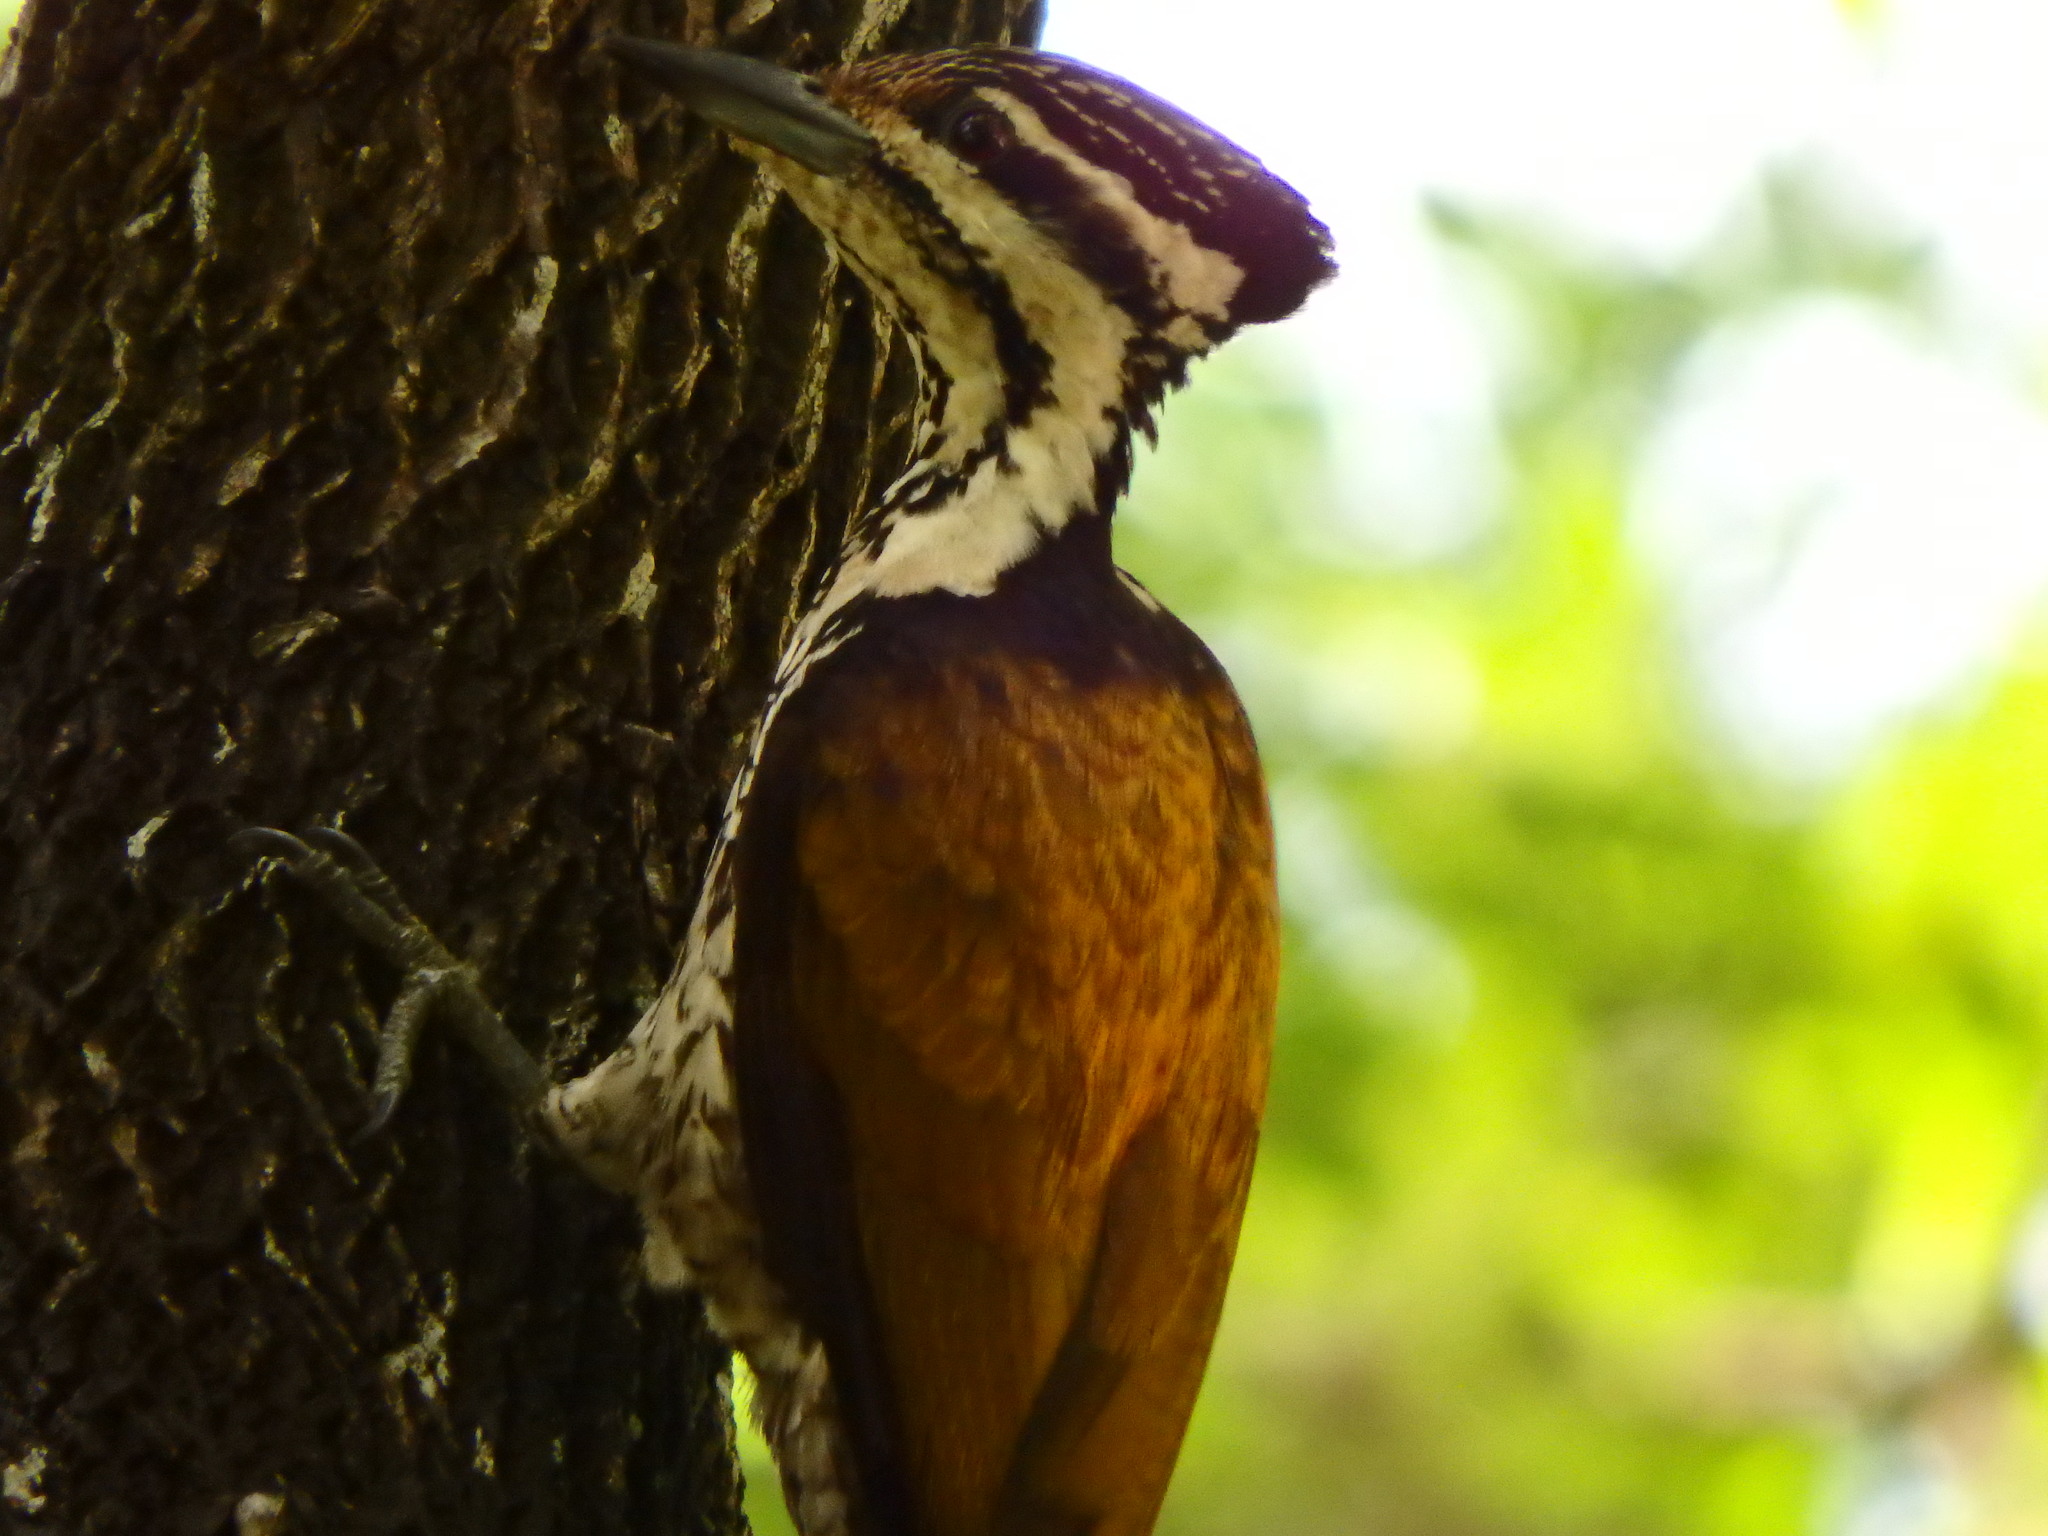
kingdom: Animalia
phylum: Chordata
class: Aves
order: Piciformes
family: Picidae
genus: Dinopium
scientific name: Dinopium javanense
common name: Common flameback
